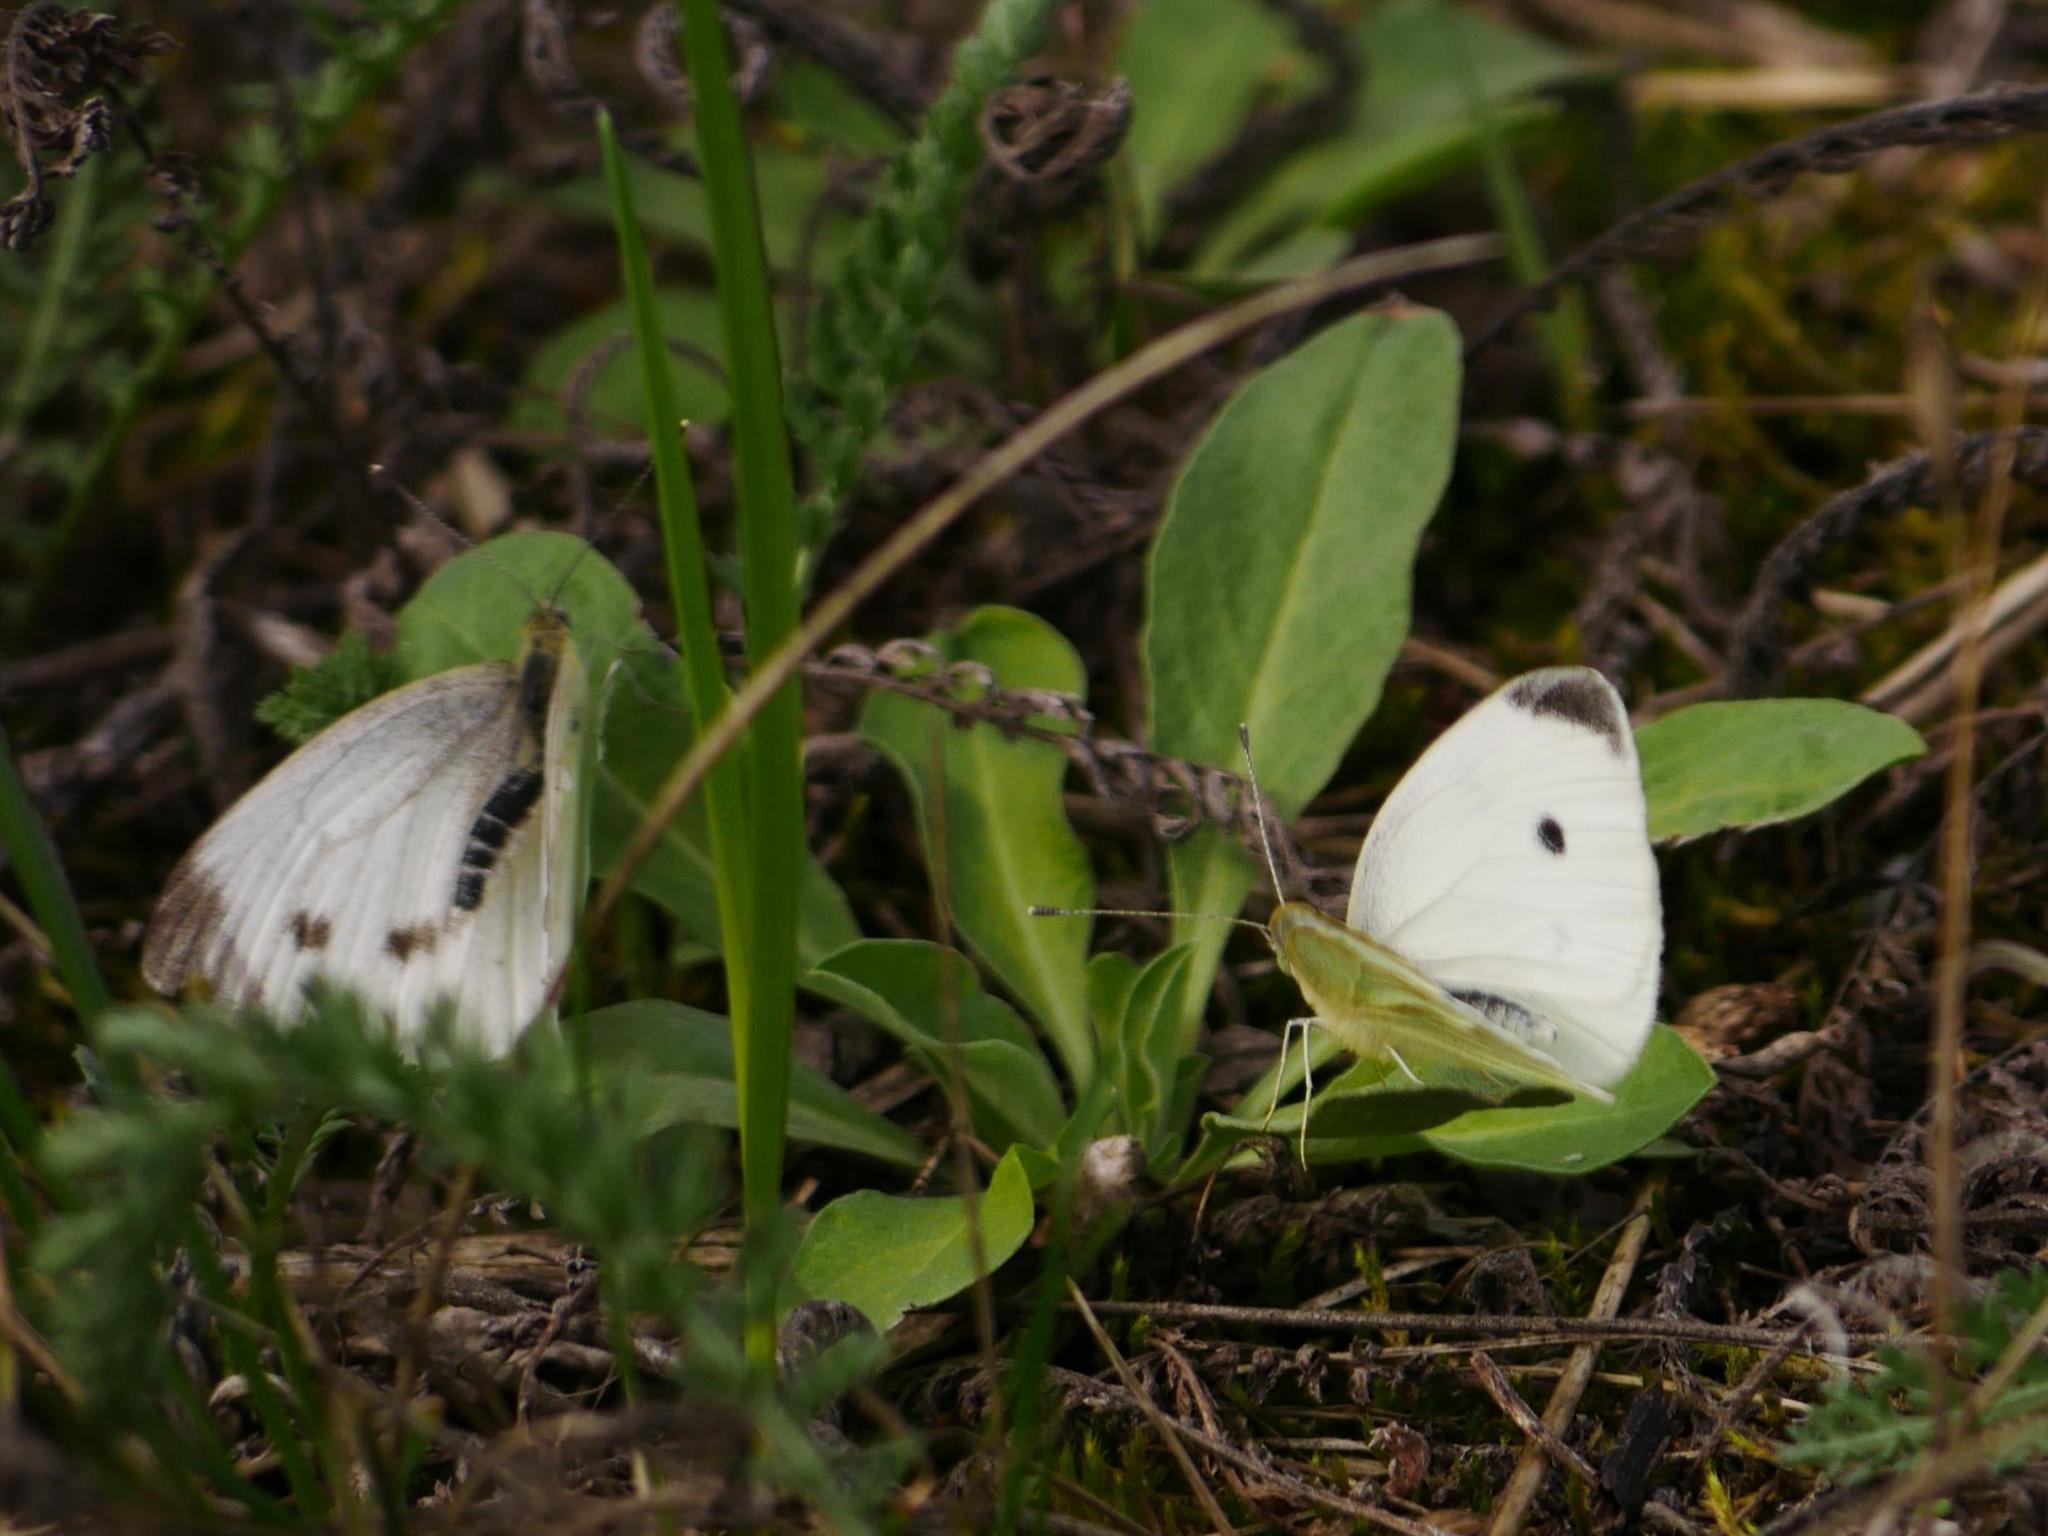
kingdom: Animalia
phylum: Arthropoda
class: Insecta
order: Lepidoptera
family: Pieridae
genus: Pieris
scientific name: Pieris rapae
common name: Small white
